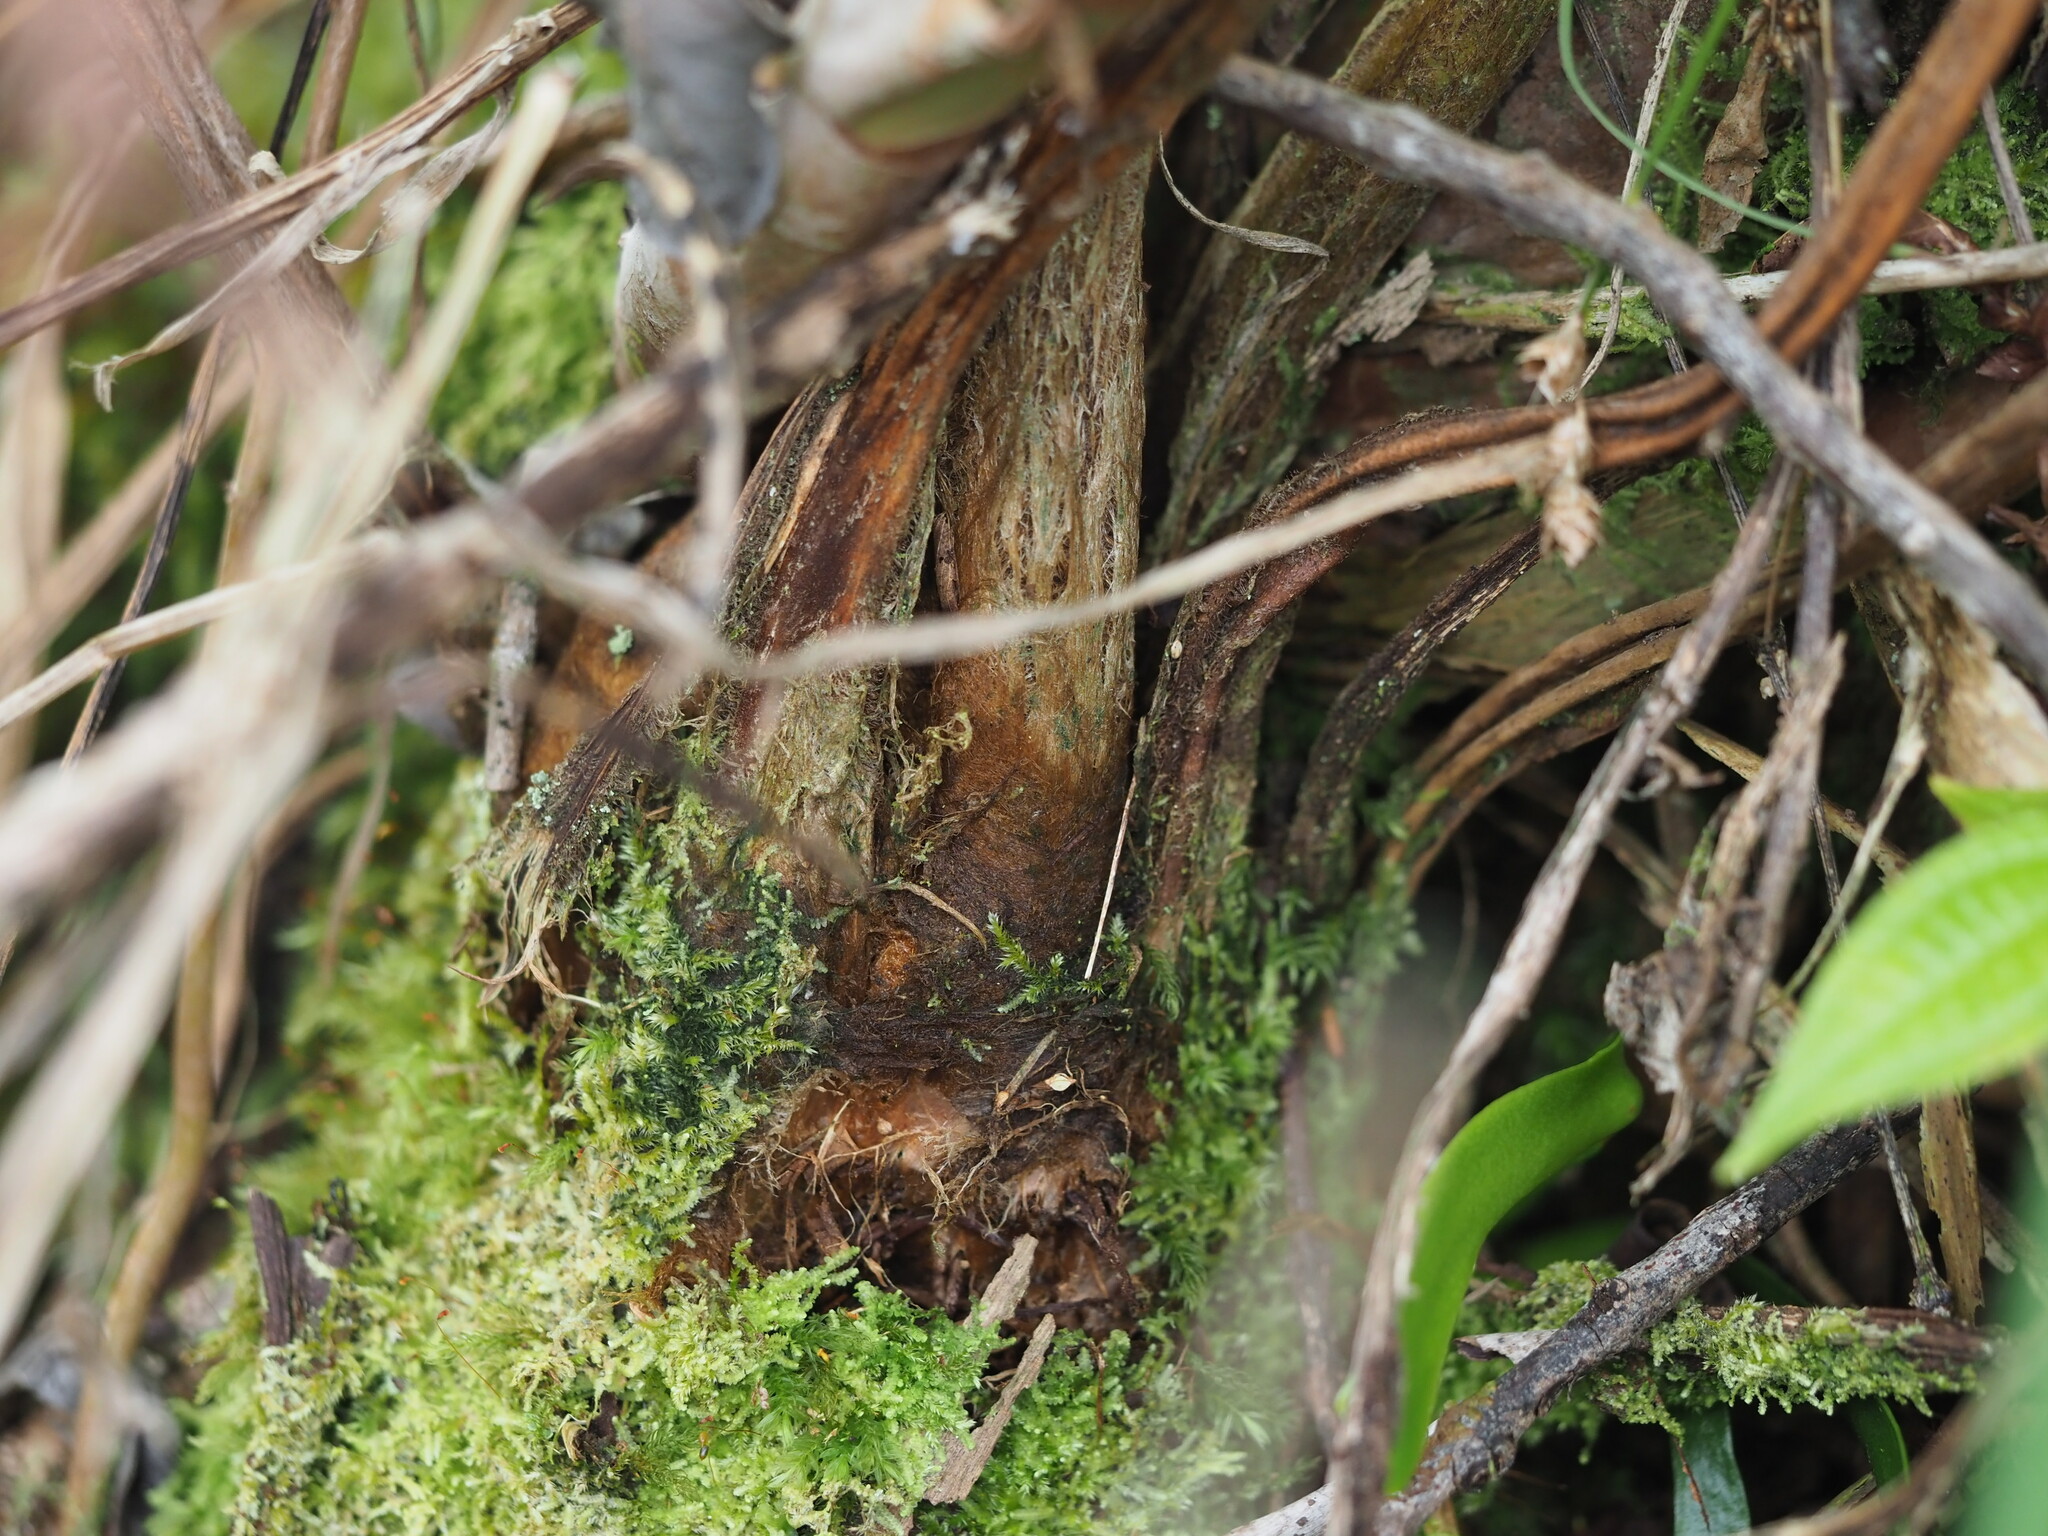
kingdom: Plantae
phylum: Tracheophyta
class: Polypodiopsida
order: Cyatheales
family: Cibotiaceae
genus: Cibotium
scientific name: Cibotium glaucum
